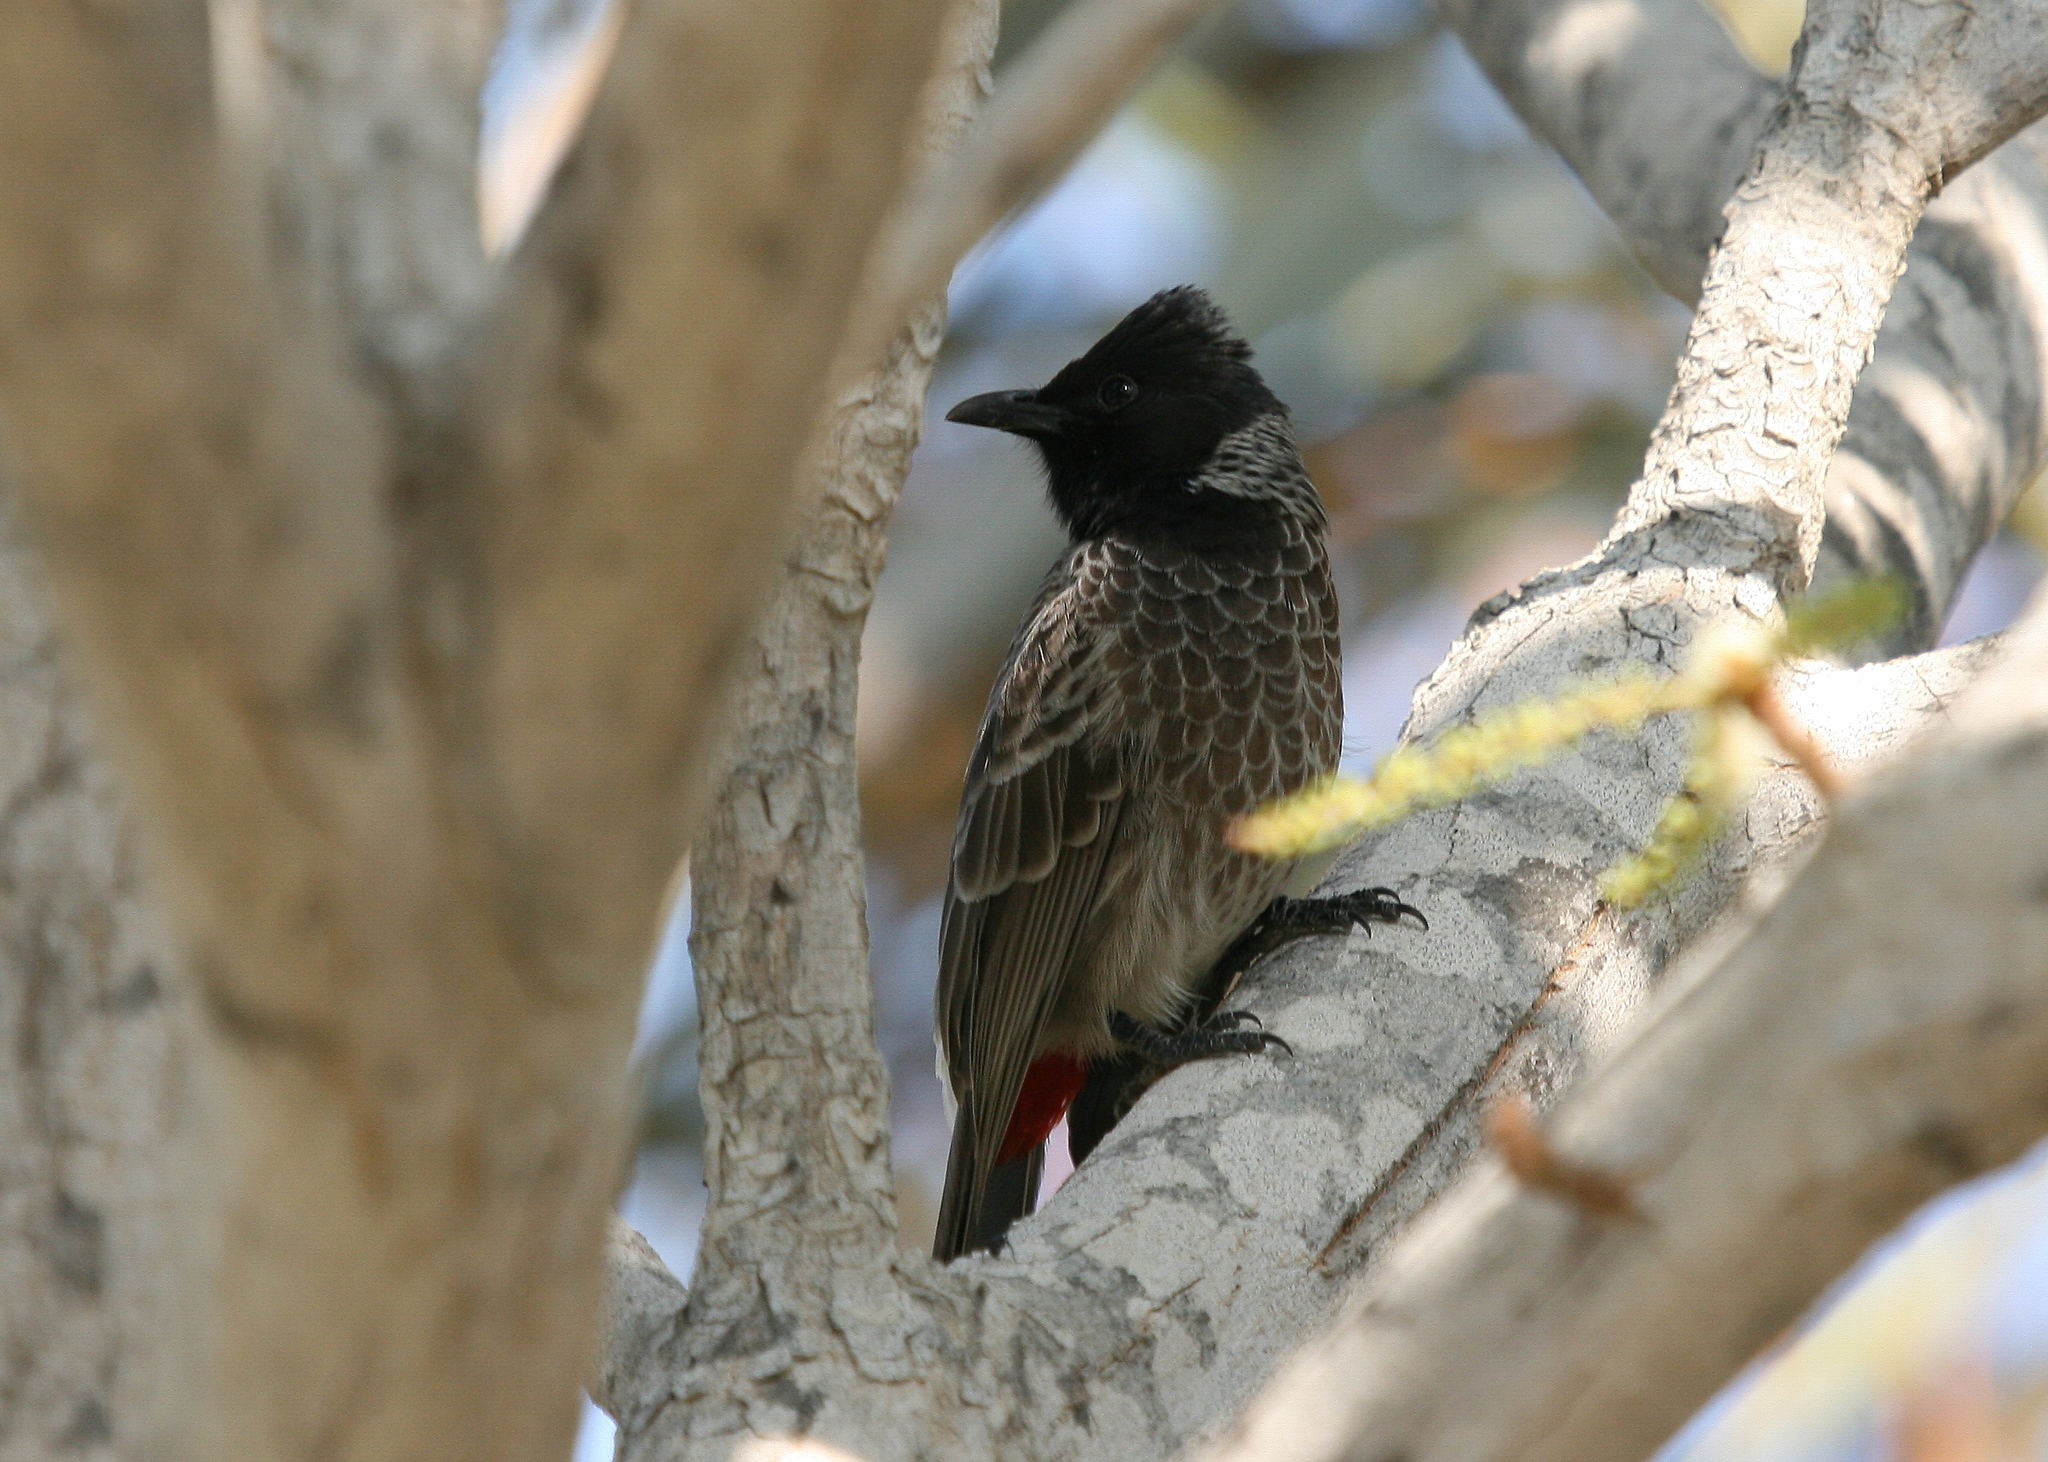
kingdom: Animalia
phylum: Chordata
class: Aves
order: Passeriformes
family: Pycnonotidae
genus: Pycnonotus
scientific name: Pycnonotus cafer
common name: Red-vented bulbul
